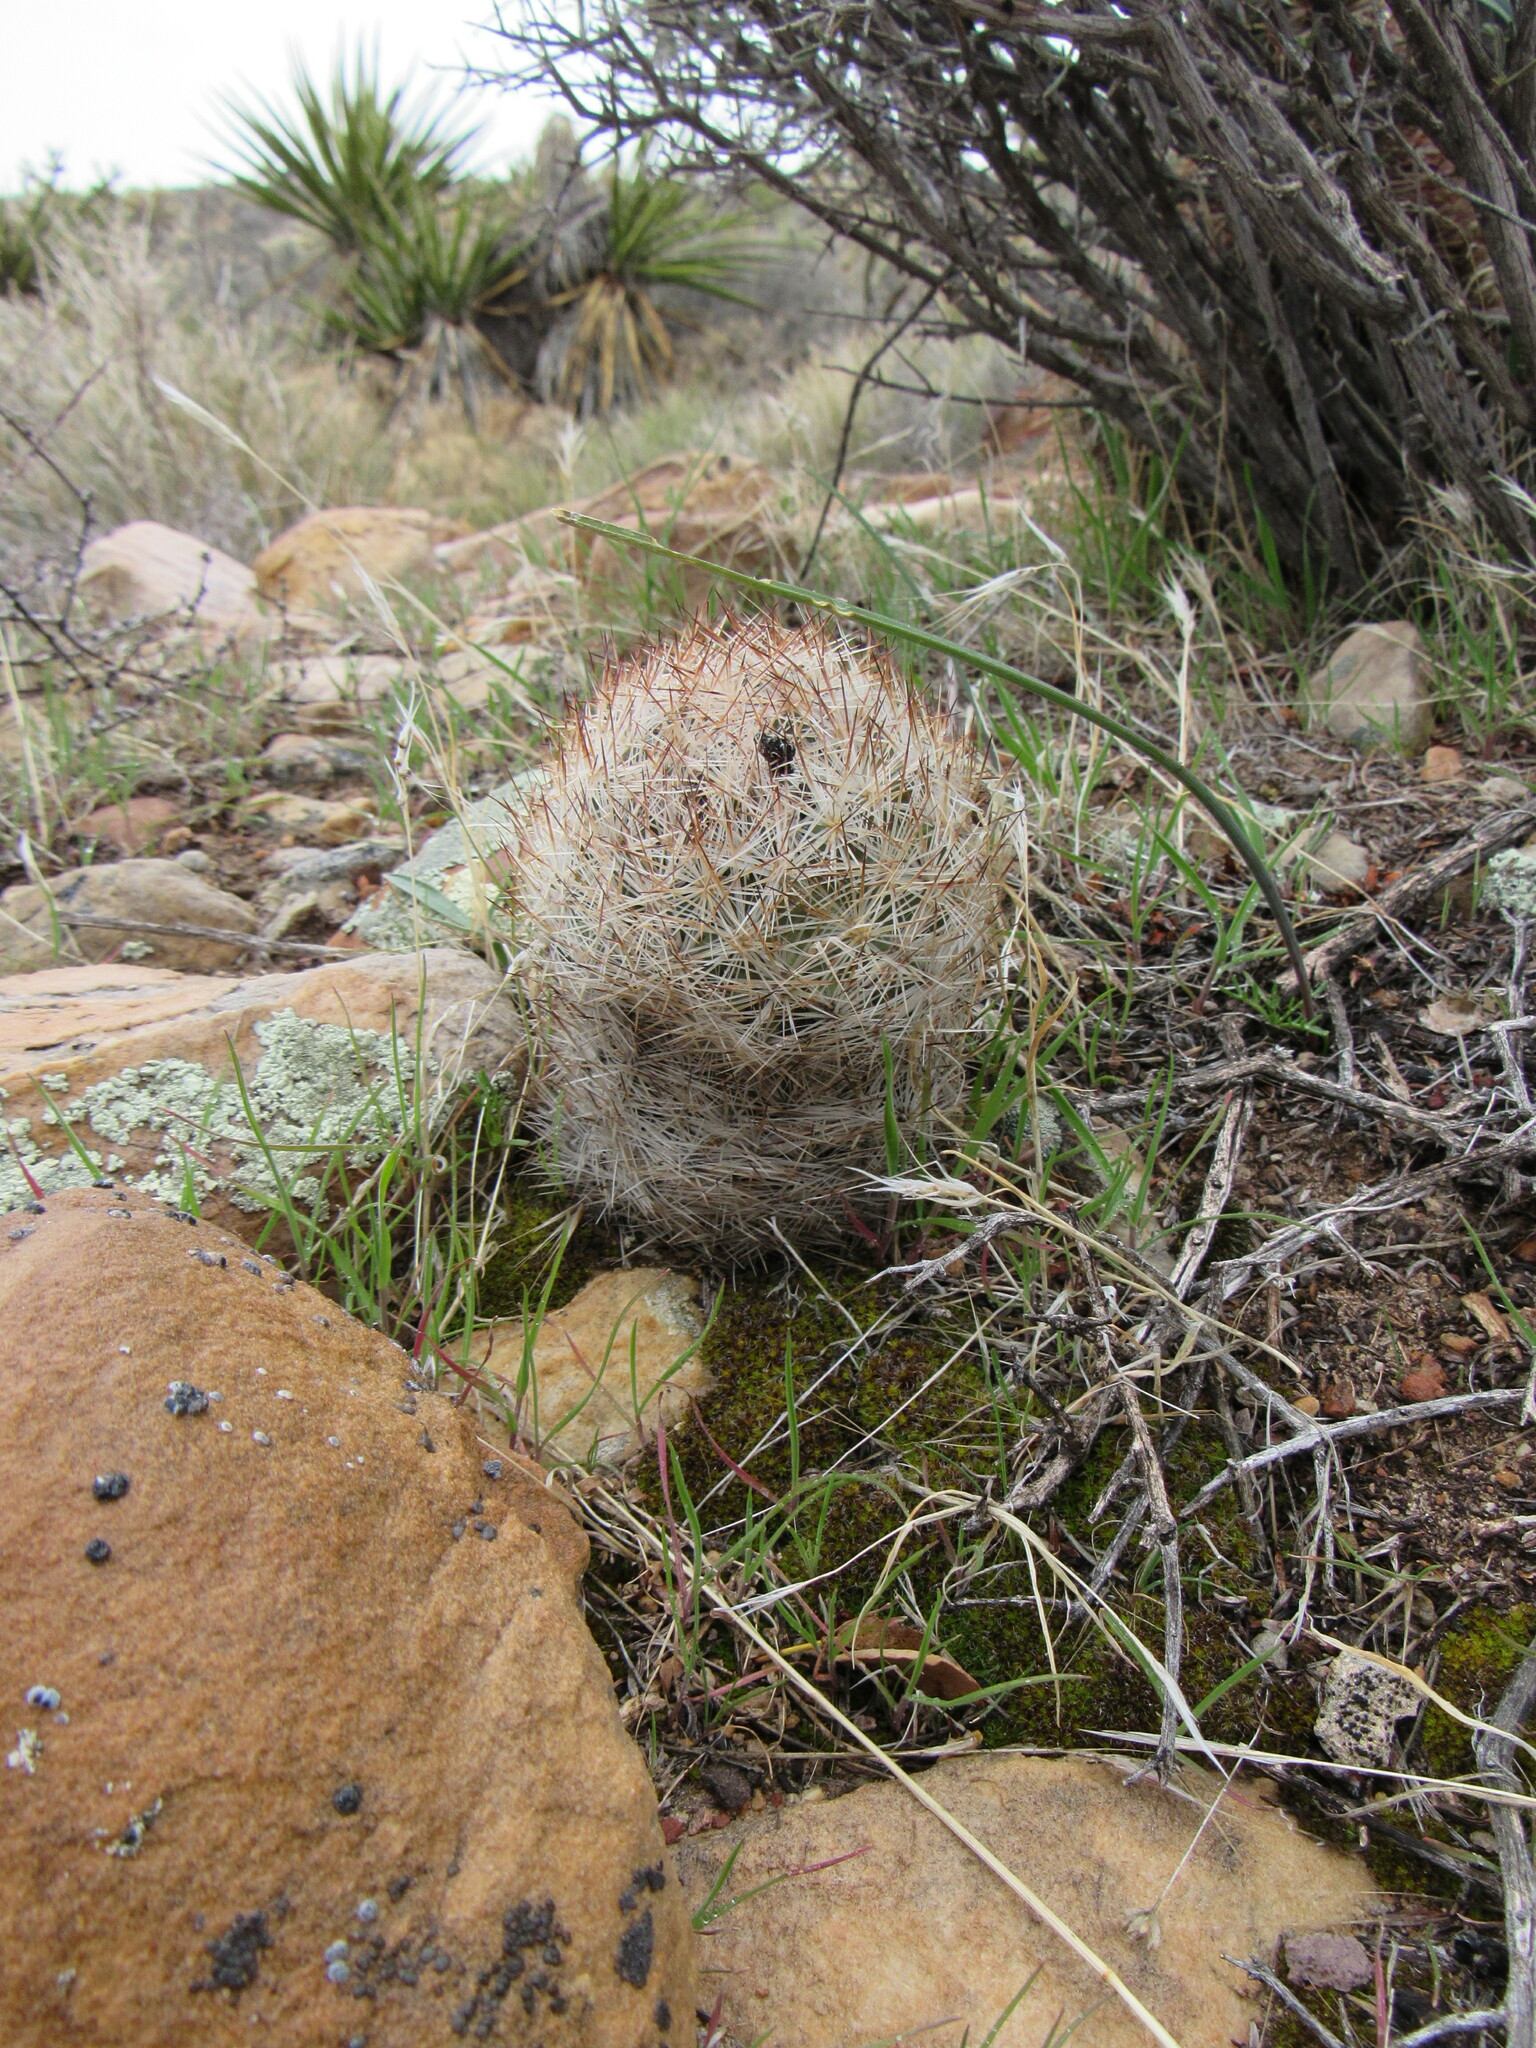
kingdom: Plantae
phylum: Tracheophyta
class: Magnoliopsida
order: Caryophyllales
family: Cactaceae
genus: Pelecyphora
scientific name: Pelecyphora dasyacantha
